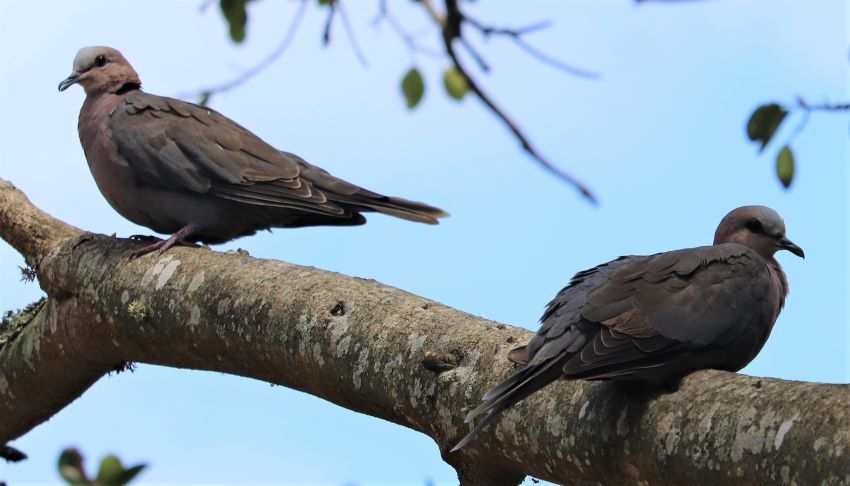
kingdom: Animalia
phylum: Chordata
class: Aves
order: Columbiformes
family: Columbidae
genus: Streptopelia
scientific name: Streptopelia semitorquata
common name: Red-eyed dove
